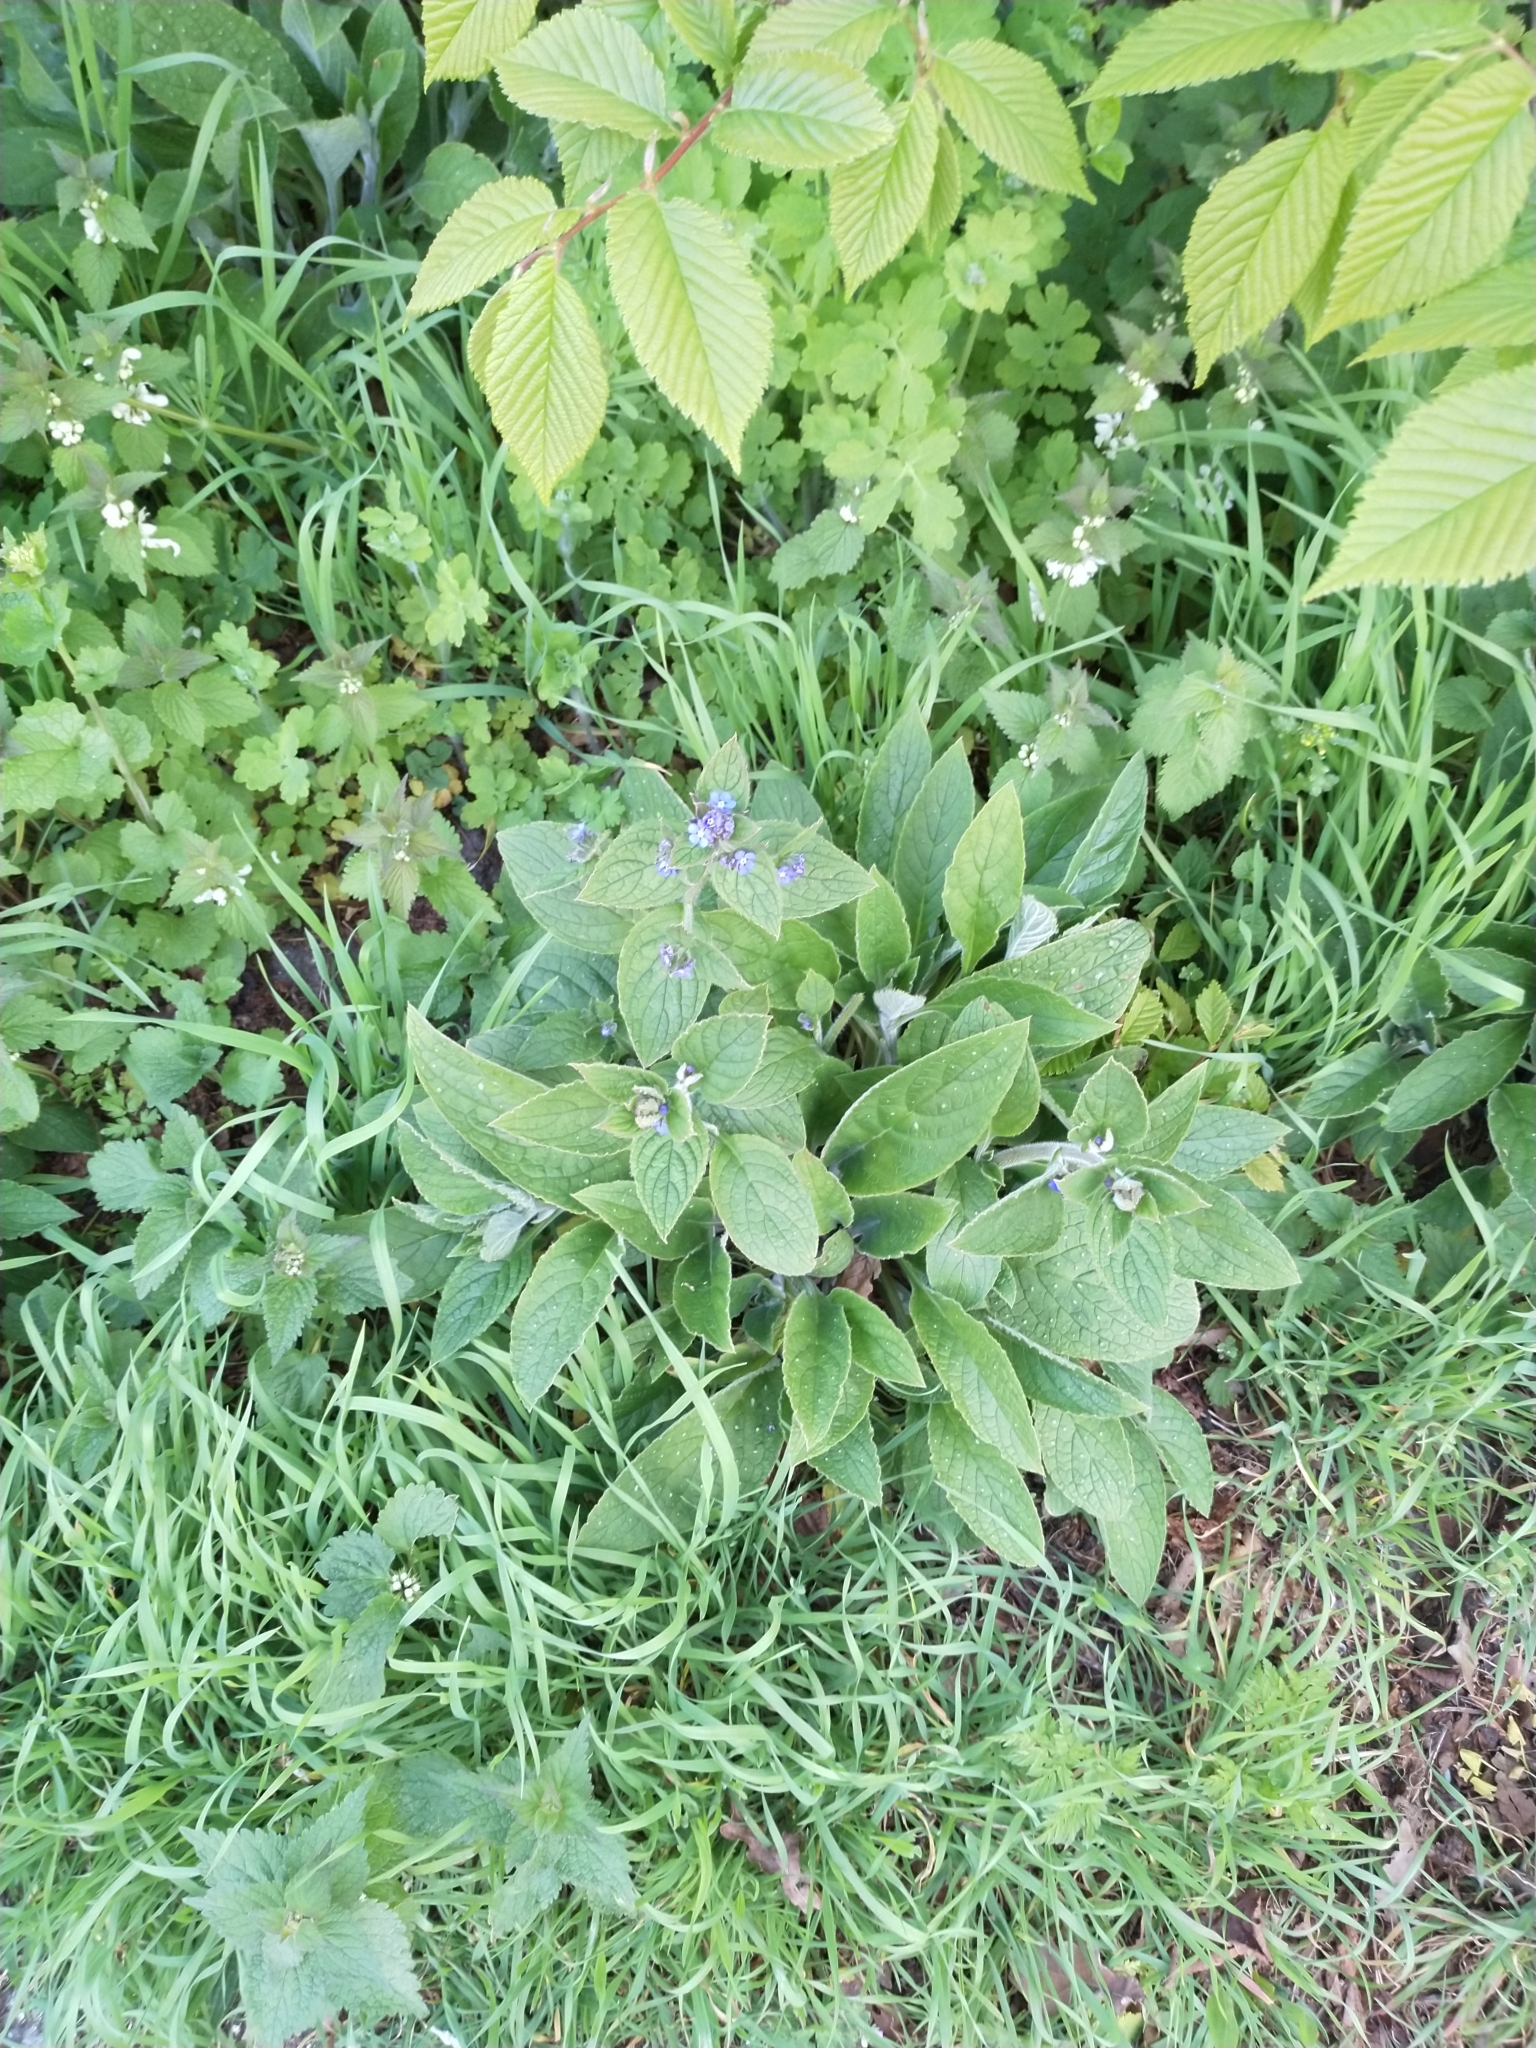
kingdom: Plantae
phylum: Tracheophyta
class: Magnoliopsida
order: Boraginales
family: Boraginaceae
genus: Pentaglottis
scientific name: Pentaglottis sempervirens
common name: Green alkanet
